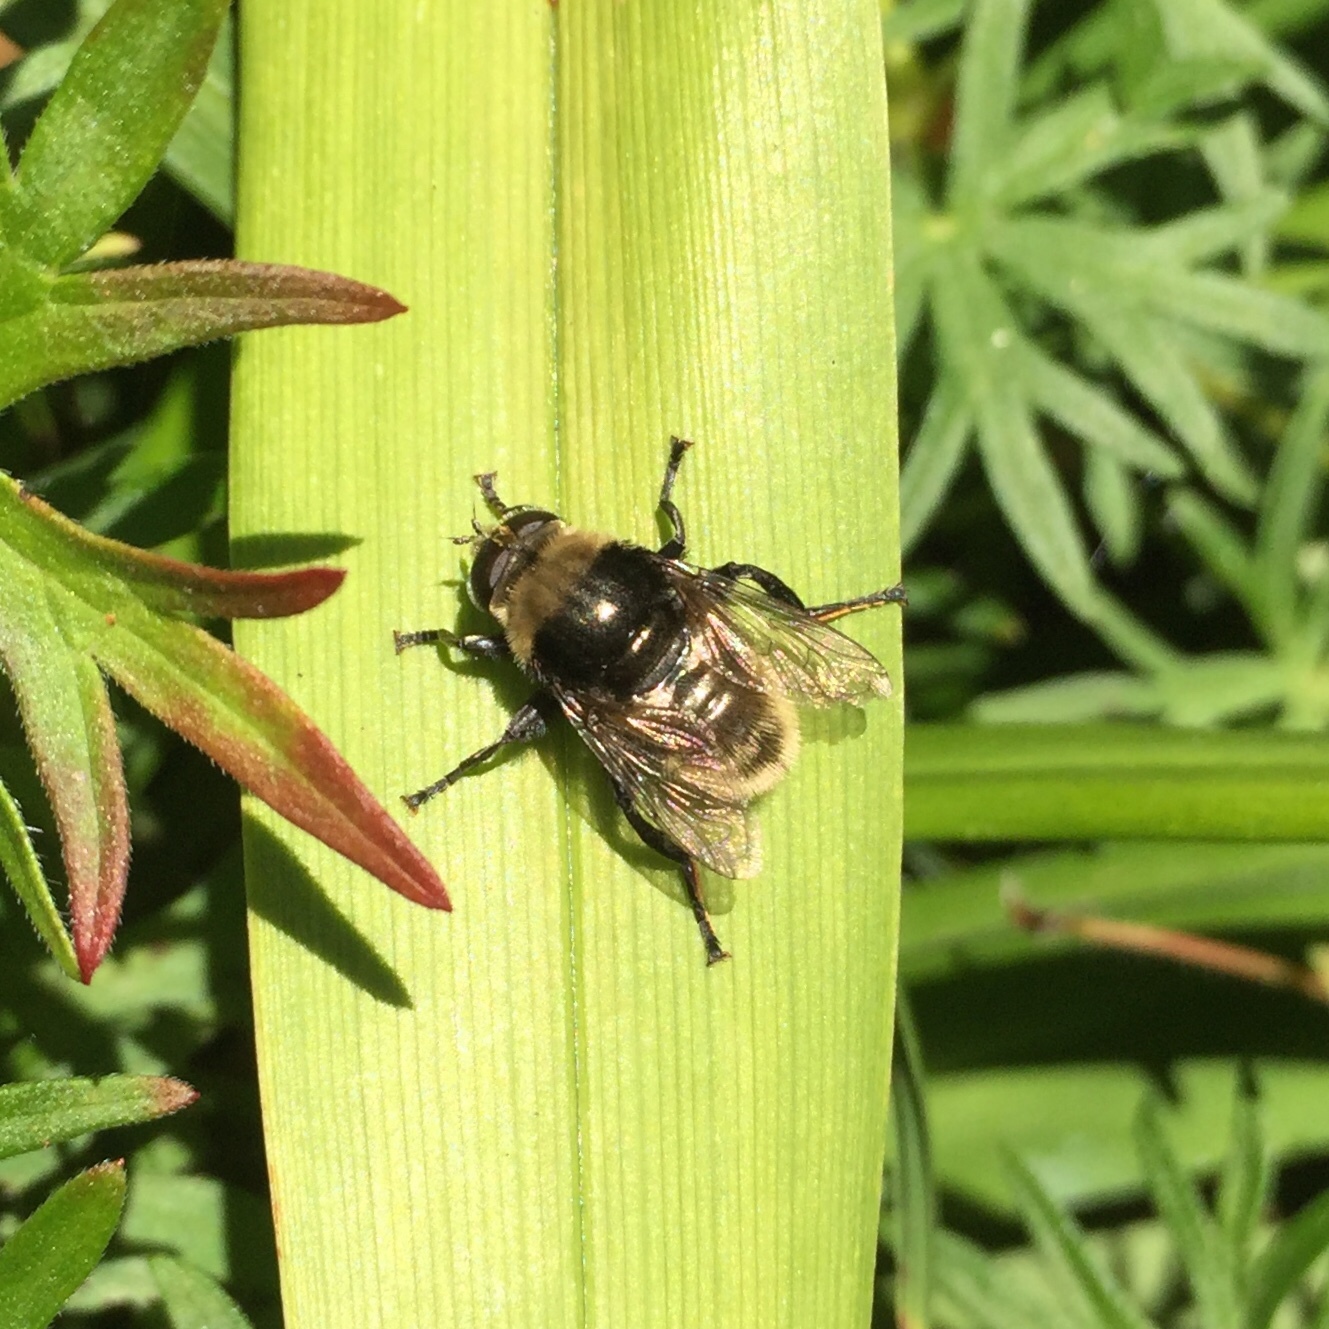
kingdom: Animalia
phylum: Arthropoda
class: Insecta
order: Diptera
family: Syrphidae
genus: Merodon
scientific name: Merodon equestris
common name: Greater bulb-fly
